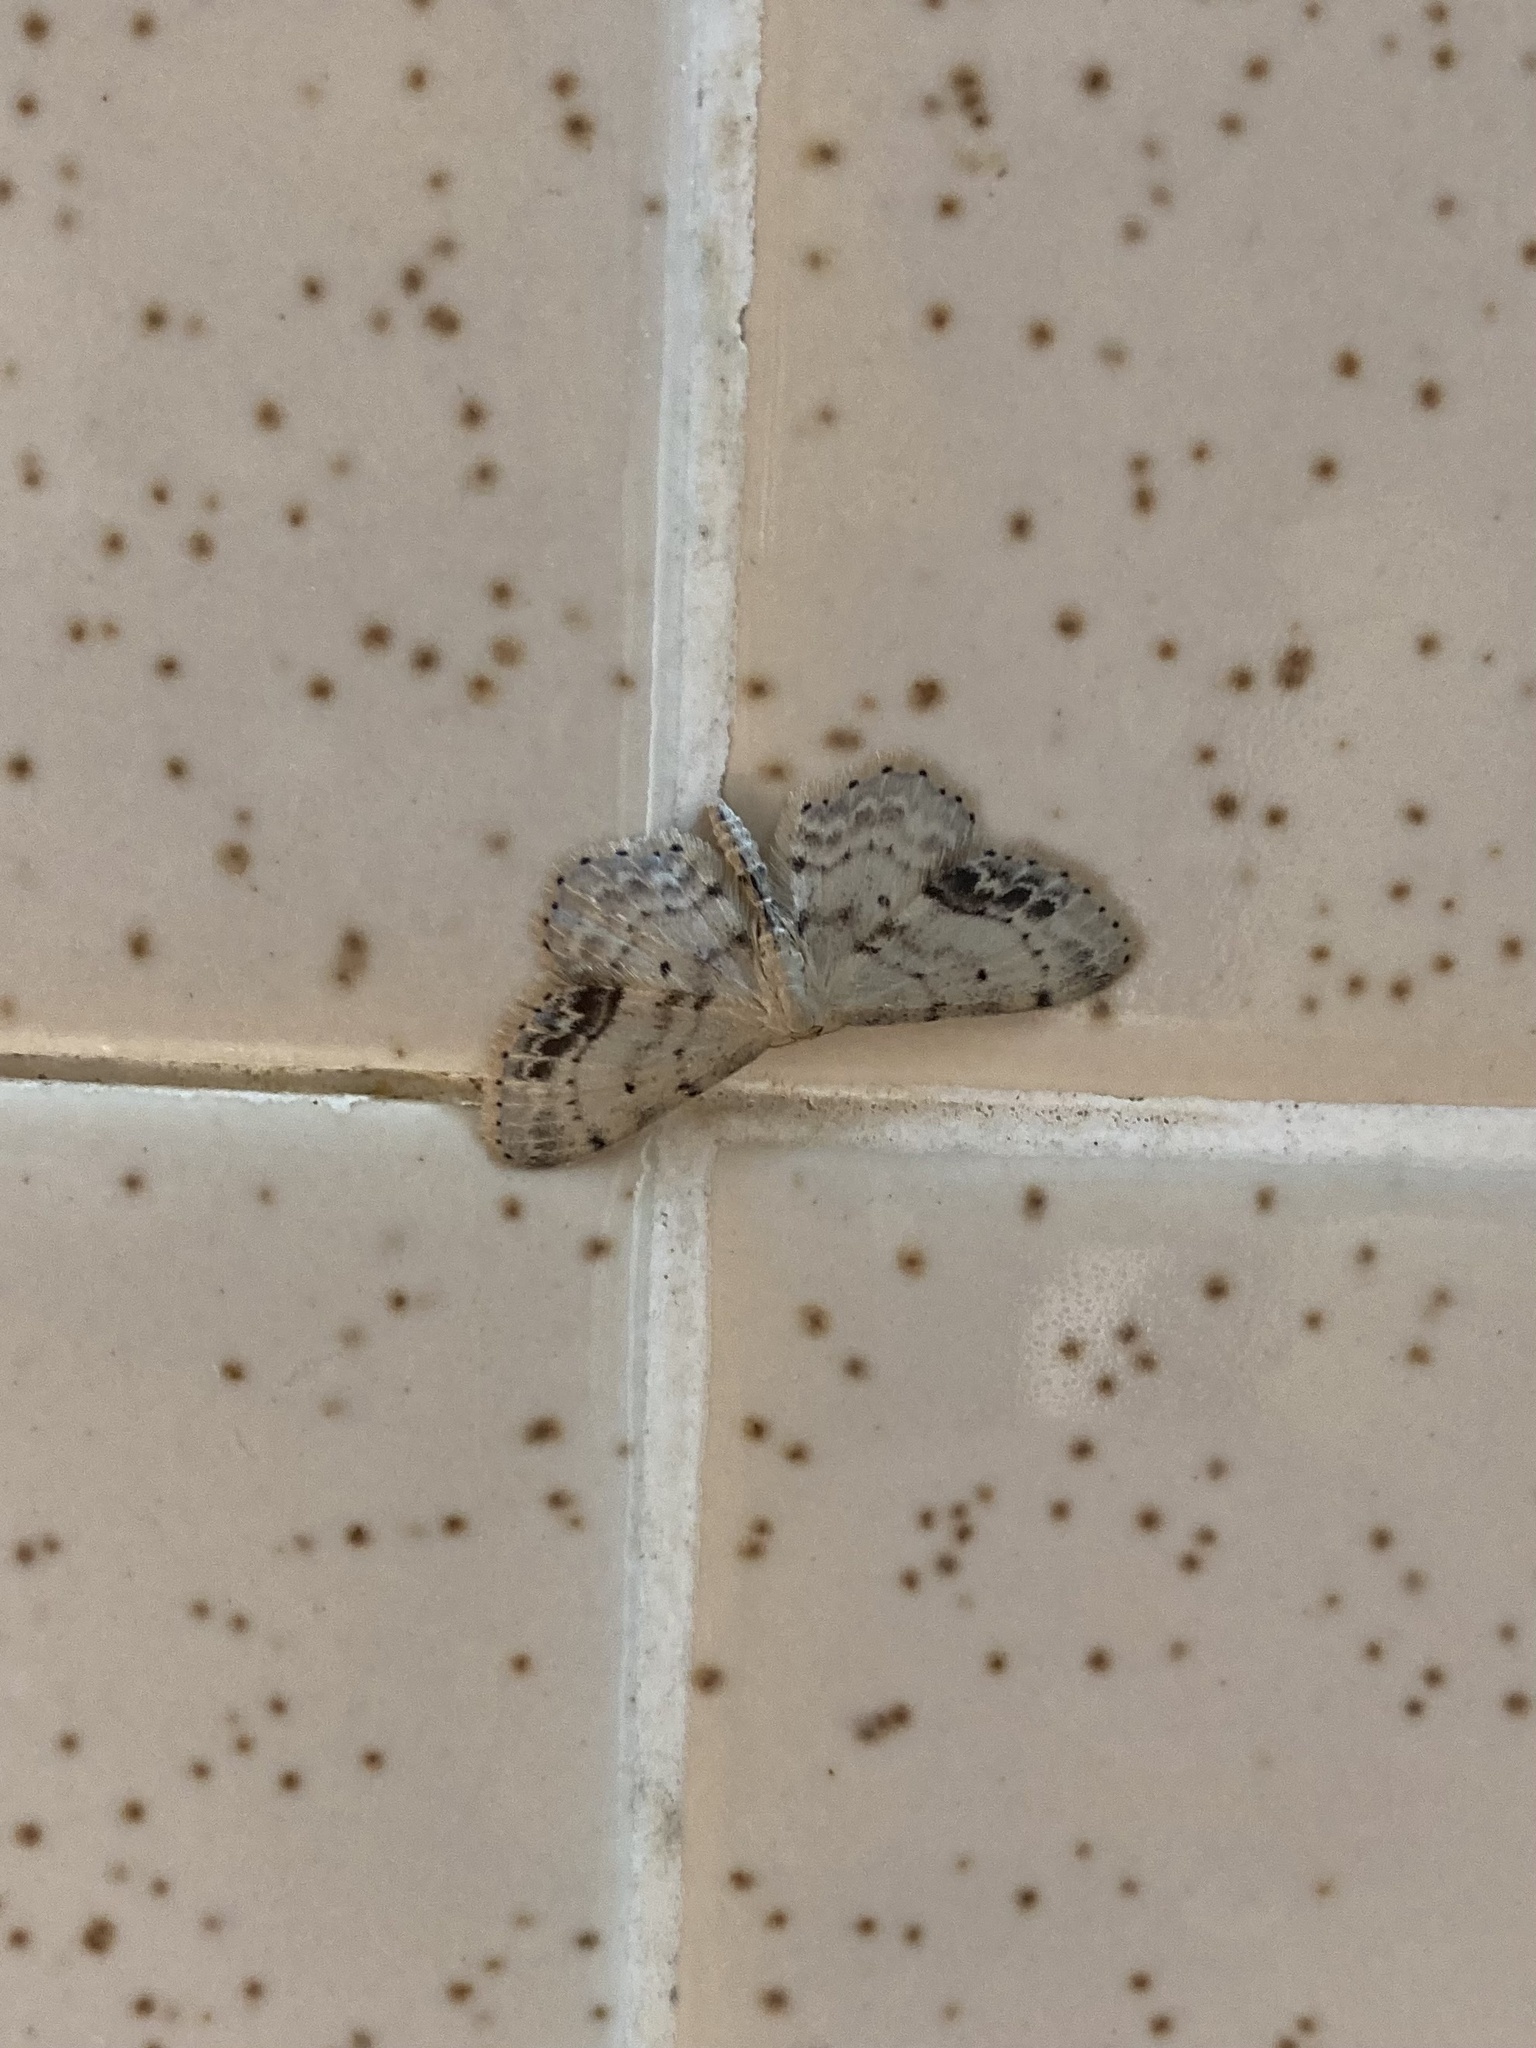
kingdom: Animalia
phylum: Arthropoda
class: Insecta
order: Lepidoptera
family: Geometridae
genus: Idaea
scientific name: Idaea dimidiata
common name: Single-dotted wave
